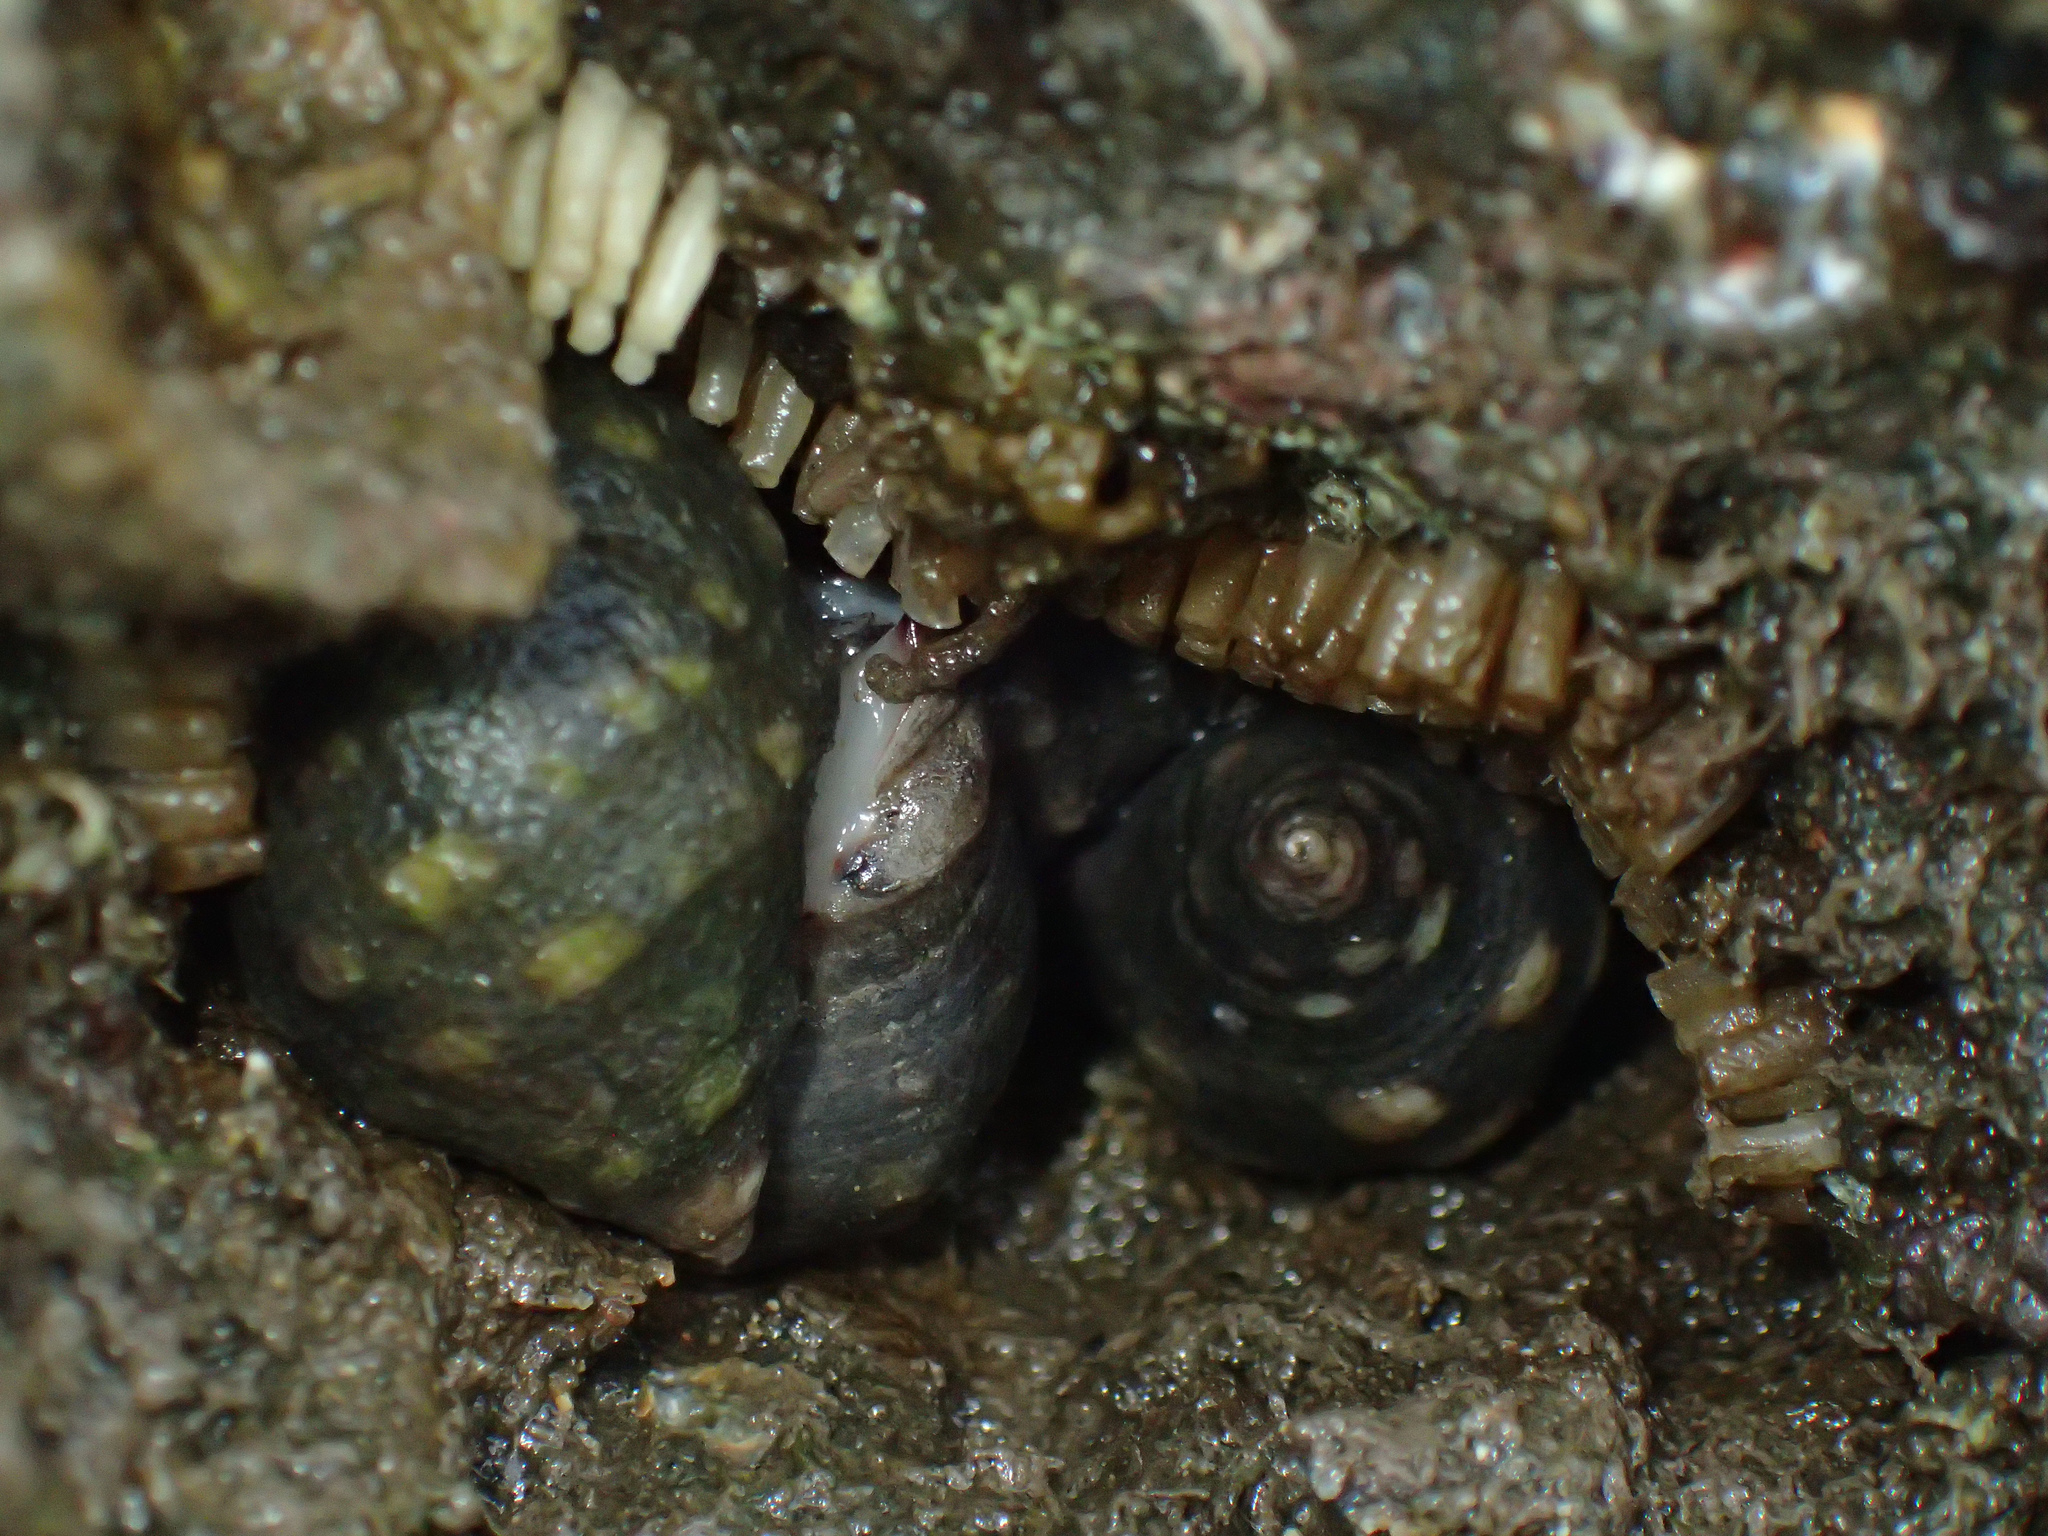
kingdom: Animalia
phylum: Mollusca
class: Gastropoda
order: Neogastropoda
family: Muricidae
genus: Acanthais
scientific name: Acanthais brevidentata
